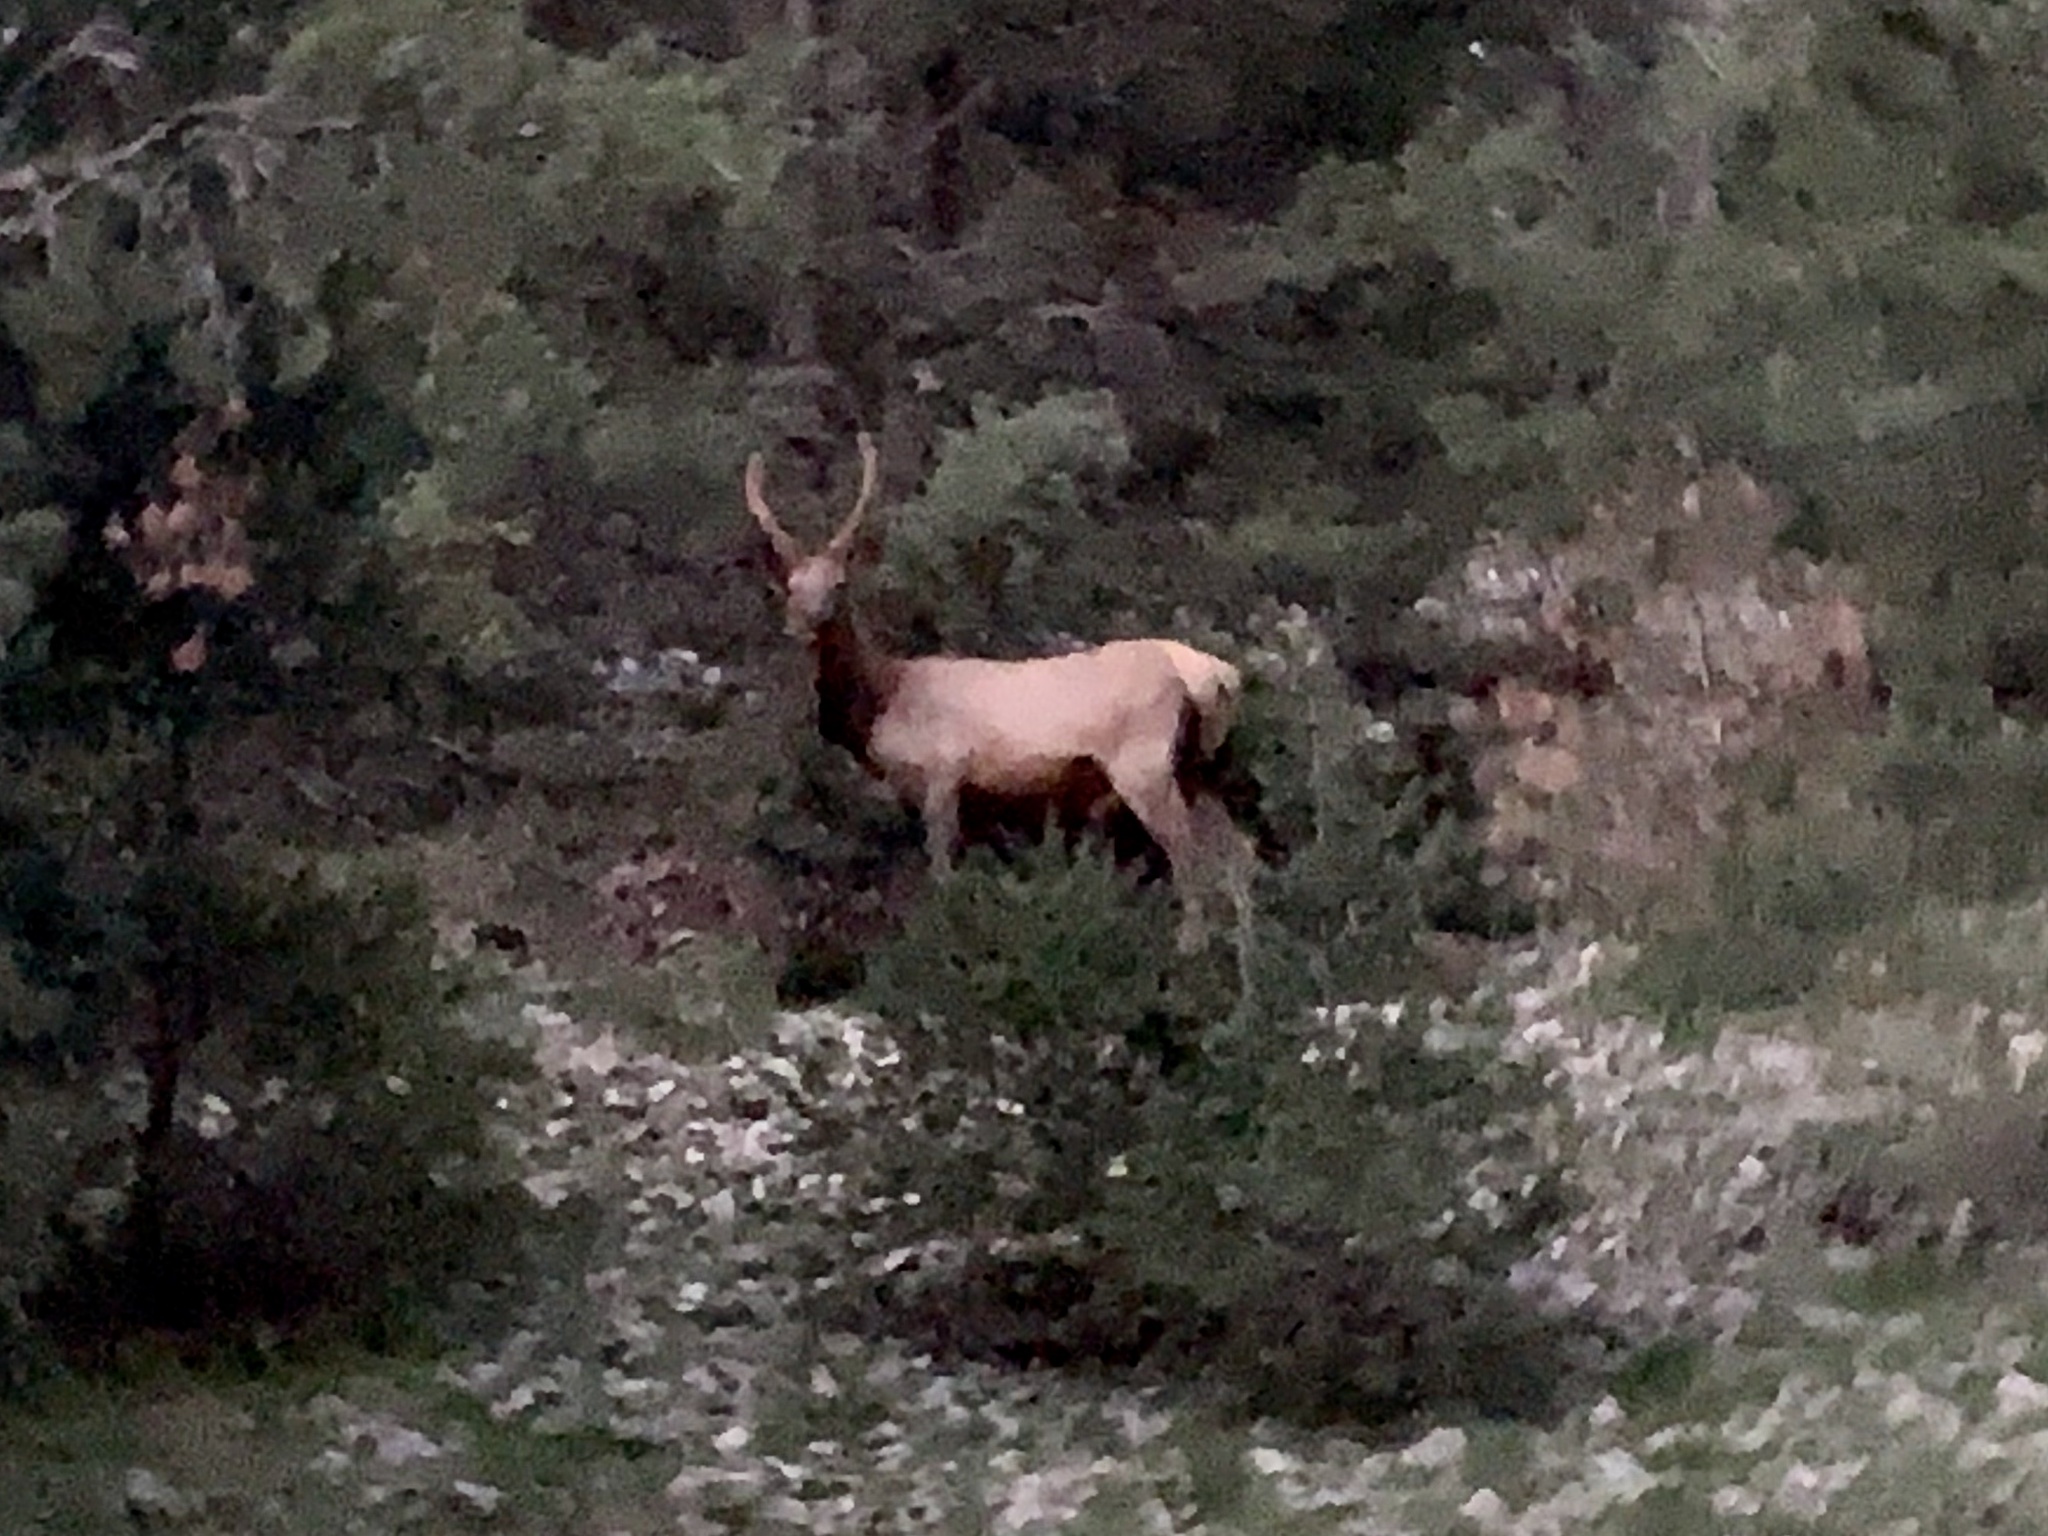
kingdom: Animalia
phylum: Chordata
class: Mammalia
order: Artiodactyla
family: Cervidae
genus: Cervus
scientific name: Cervus elaphus
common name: Red deer
